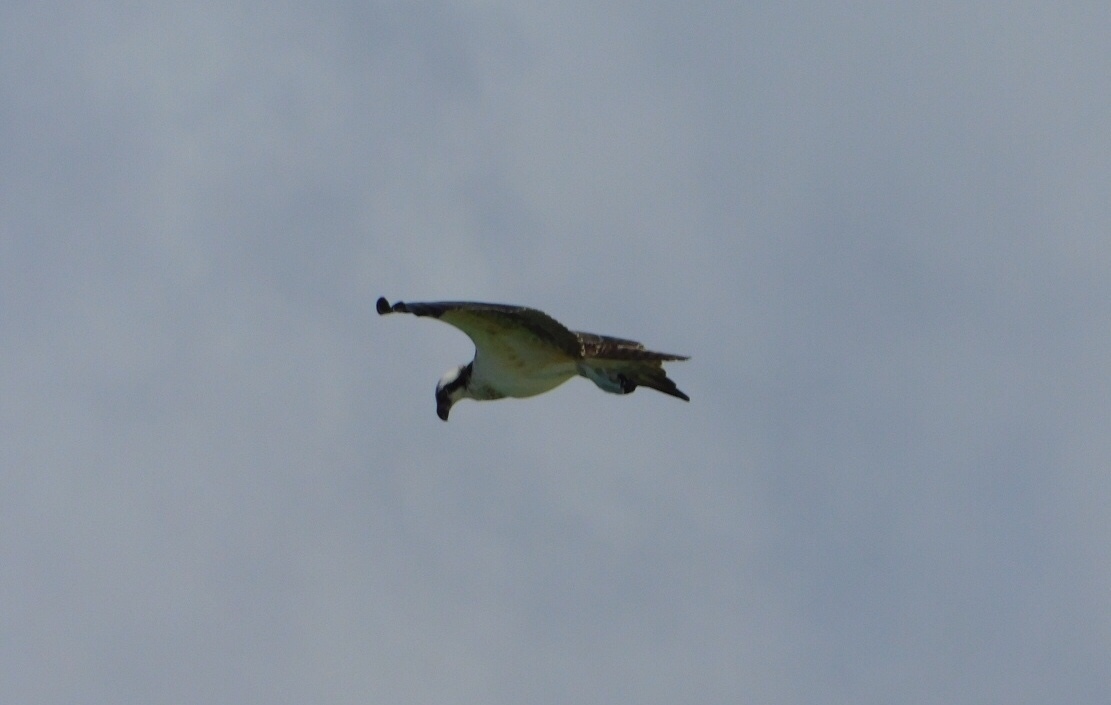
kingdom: Animalia
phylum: Chordata
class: Aves
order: Accipitriformes
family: Pandionidae
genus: Pandion
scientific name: Pandion haliaetus
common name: Osprey
